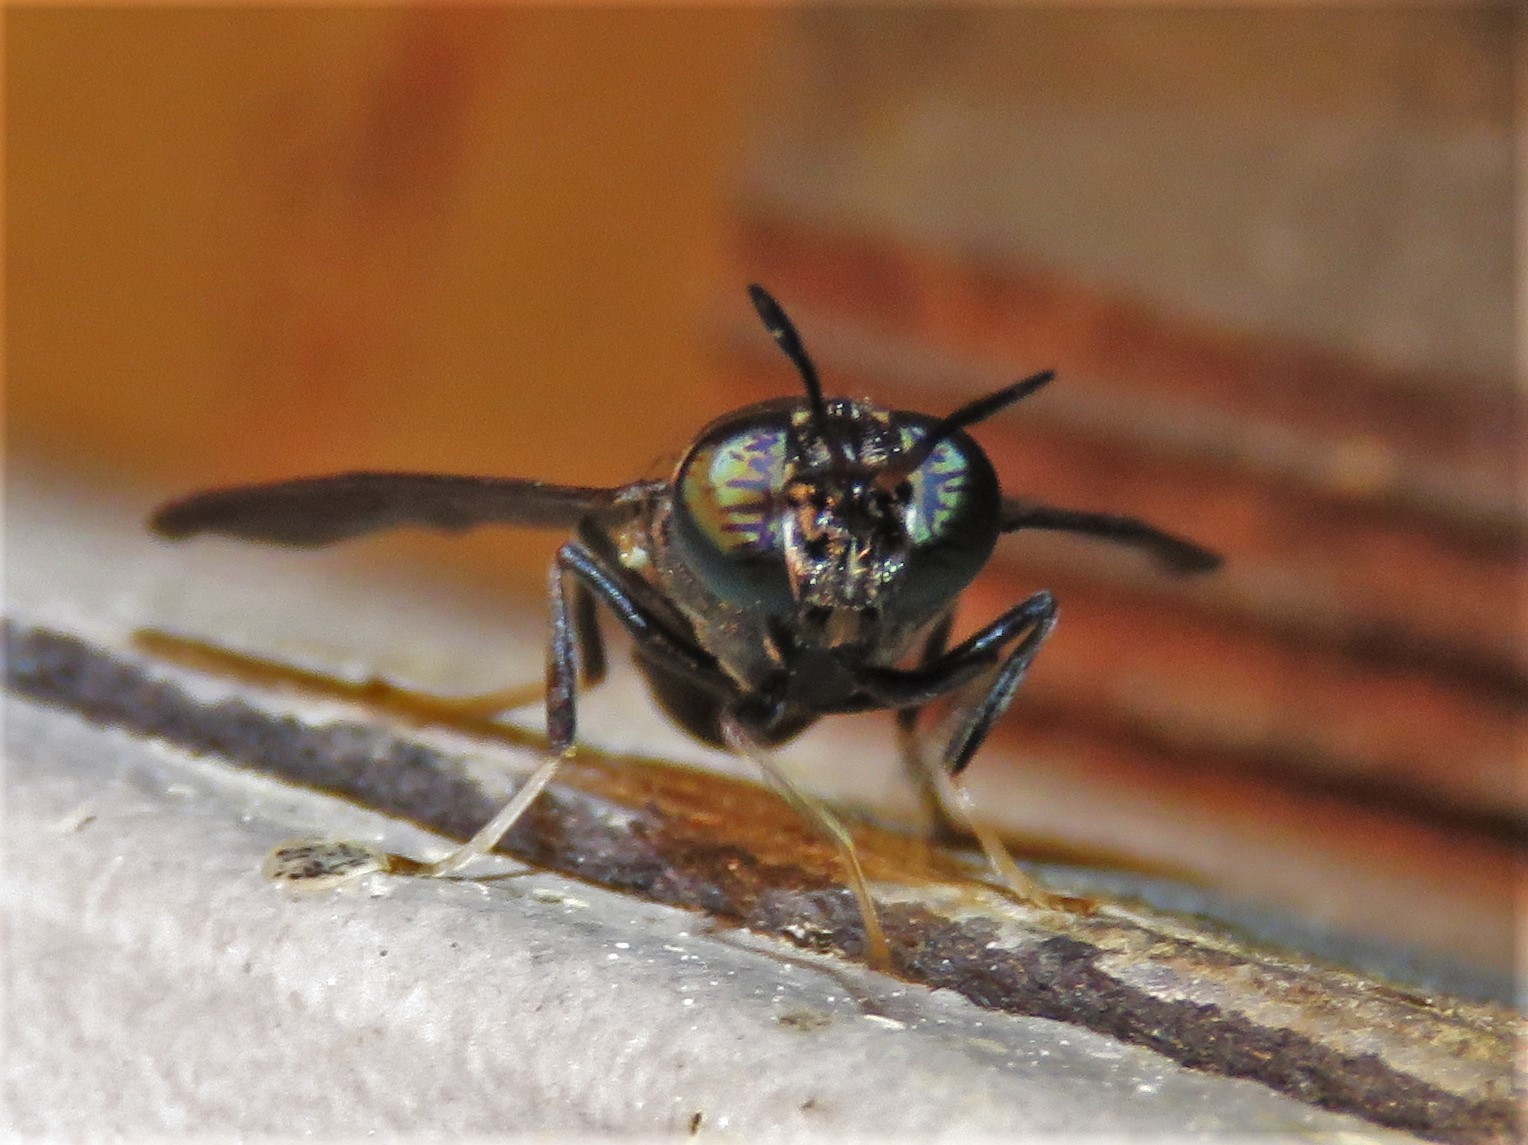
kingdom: Animalia
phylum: Arthropoda
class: Insecta
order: Diptera
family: Stratiomyidae
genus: Hermetia
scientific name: Hermetia illucens
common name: Black soldier fly
